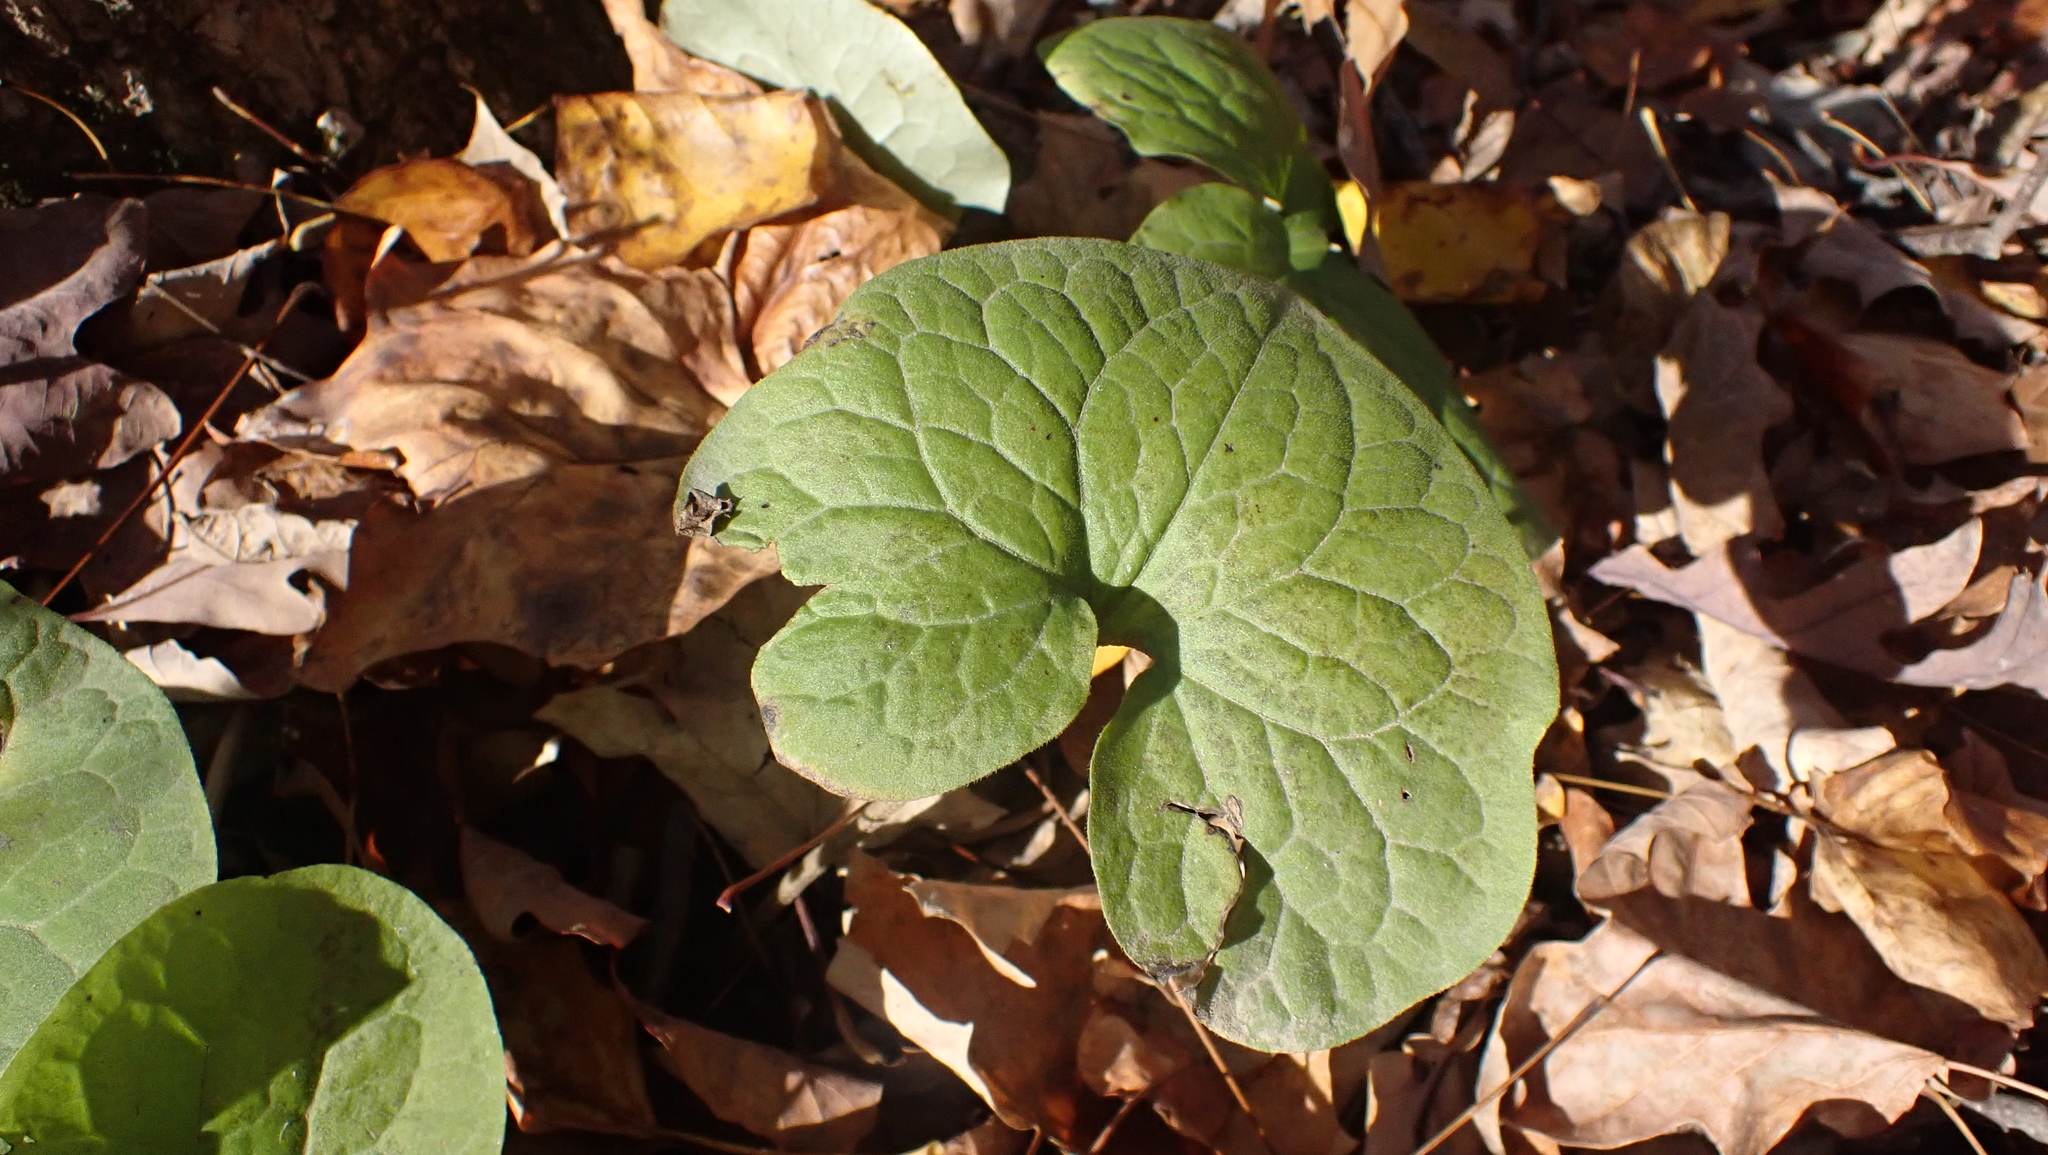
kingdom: Plantae
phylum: Tracheophyta
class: Magnoliopsida
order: Piperales
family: Aristolochiaceae
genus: Asarum
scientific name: Asarum canadense
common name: Wild ginger
